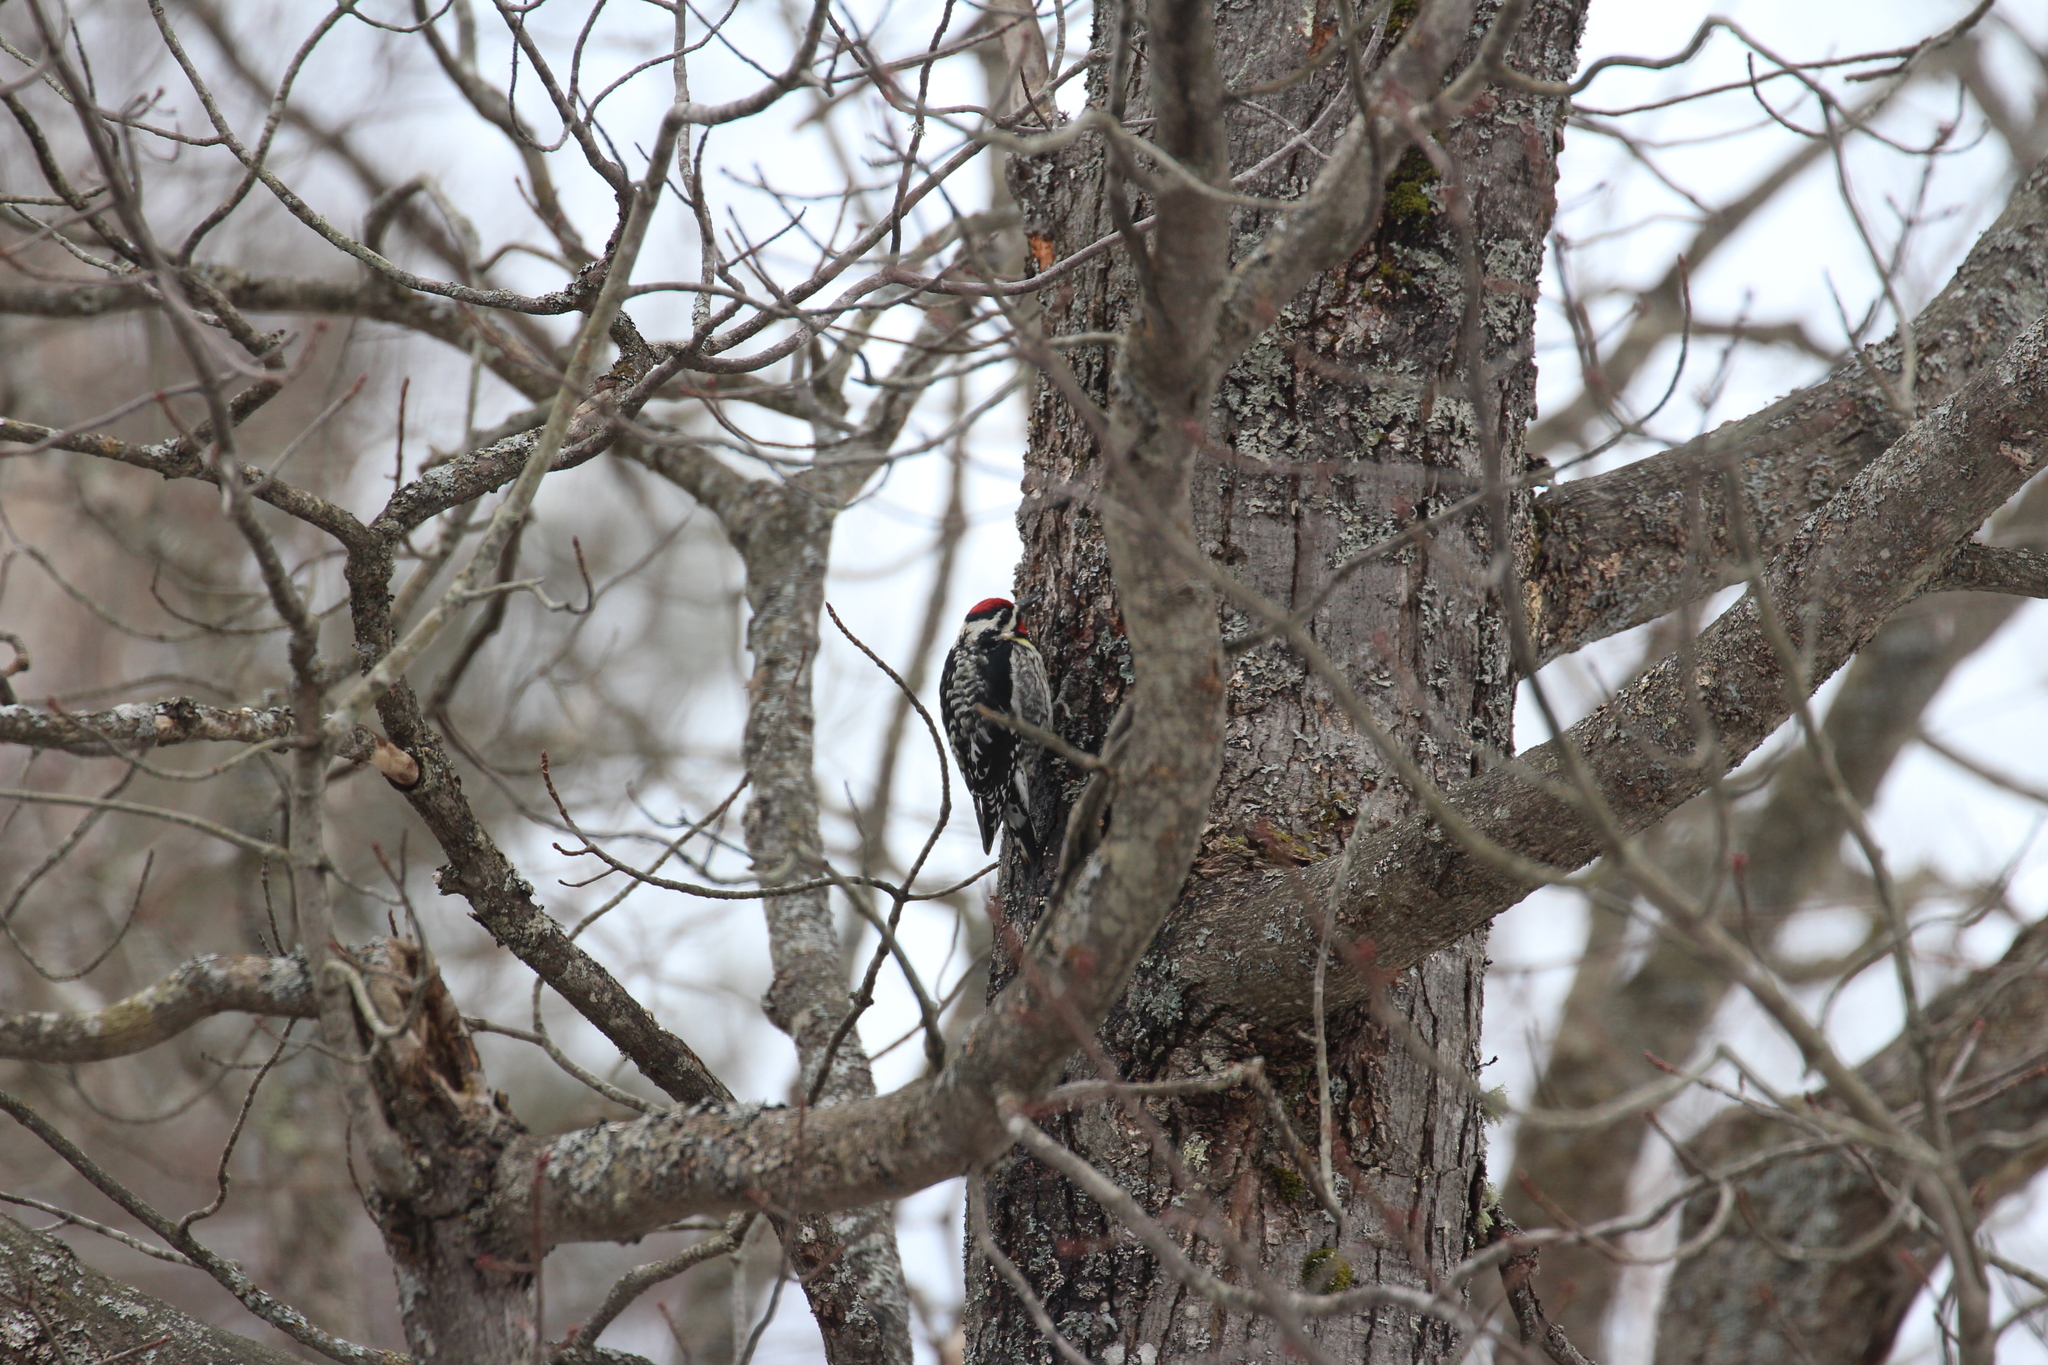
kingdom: Animalia
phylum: Chordata
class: Aves
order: Piciformes
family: Picidae
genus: Sphyrapicus
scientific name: Sphyrapicus varius
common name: Yellow-bellied sapsucker
